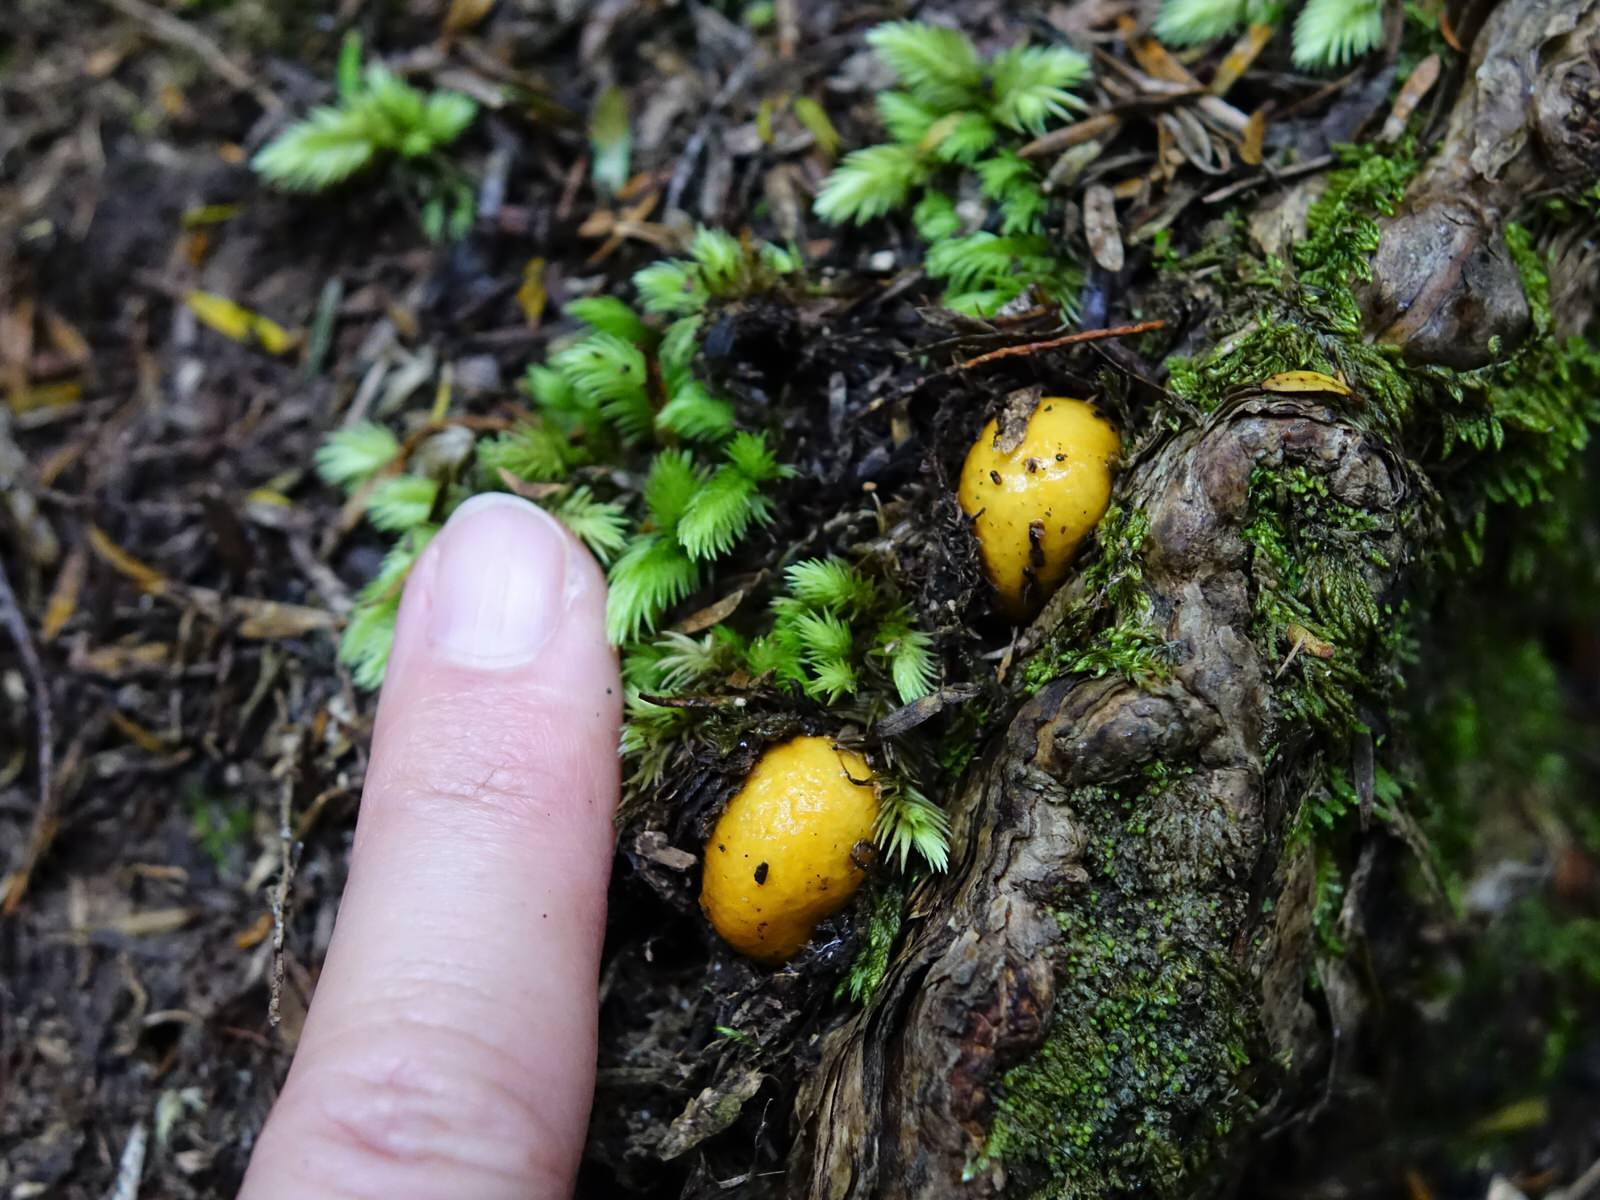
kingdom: Fungi
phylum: Basidiomycota
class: Agaricomycetes
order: Agaricales
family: Cortinariaceae
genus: Cortinarius
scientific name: Cortinarius peraurantiacus
